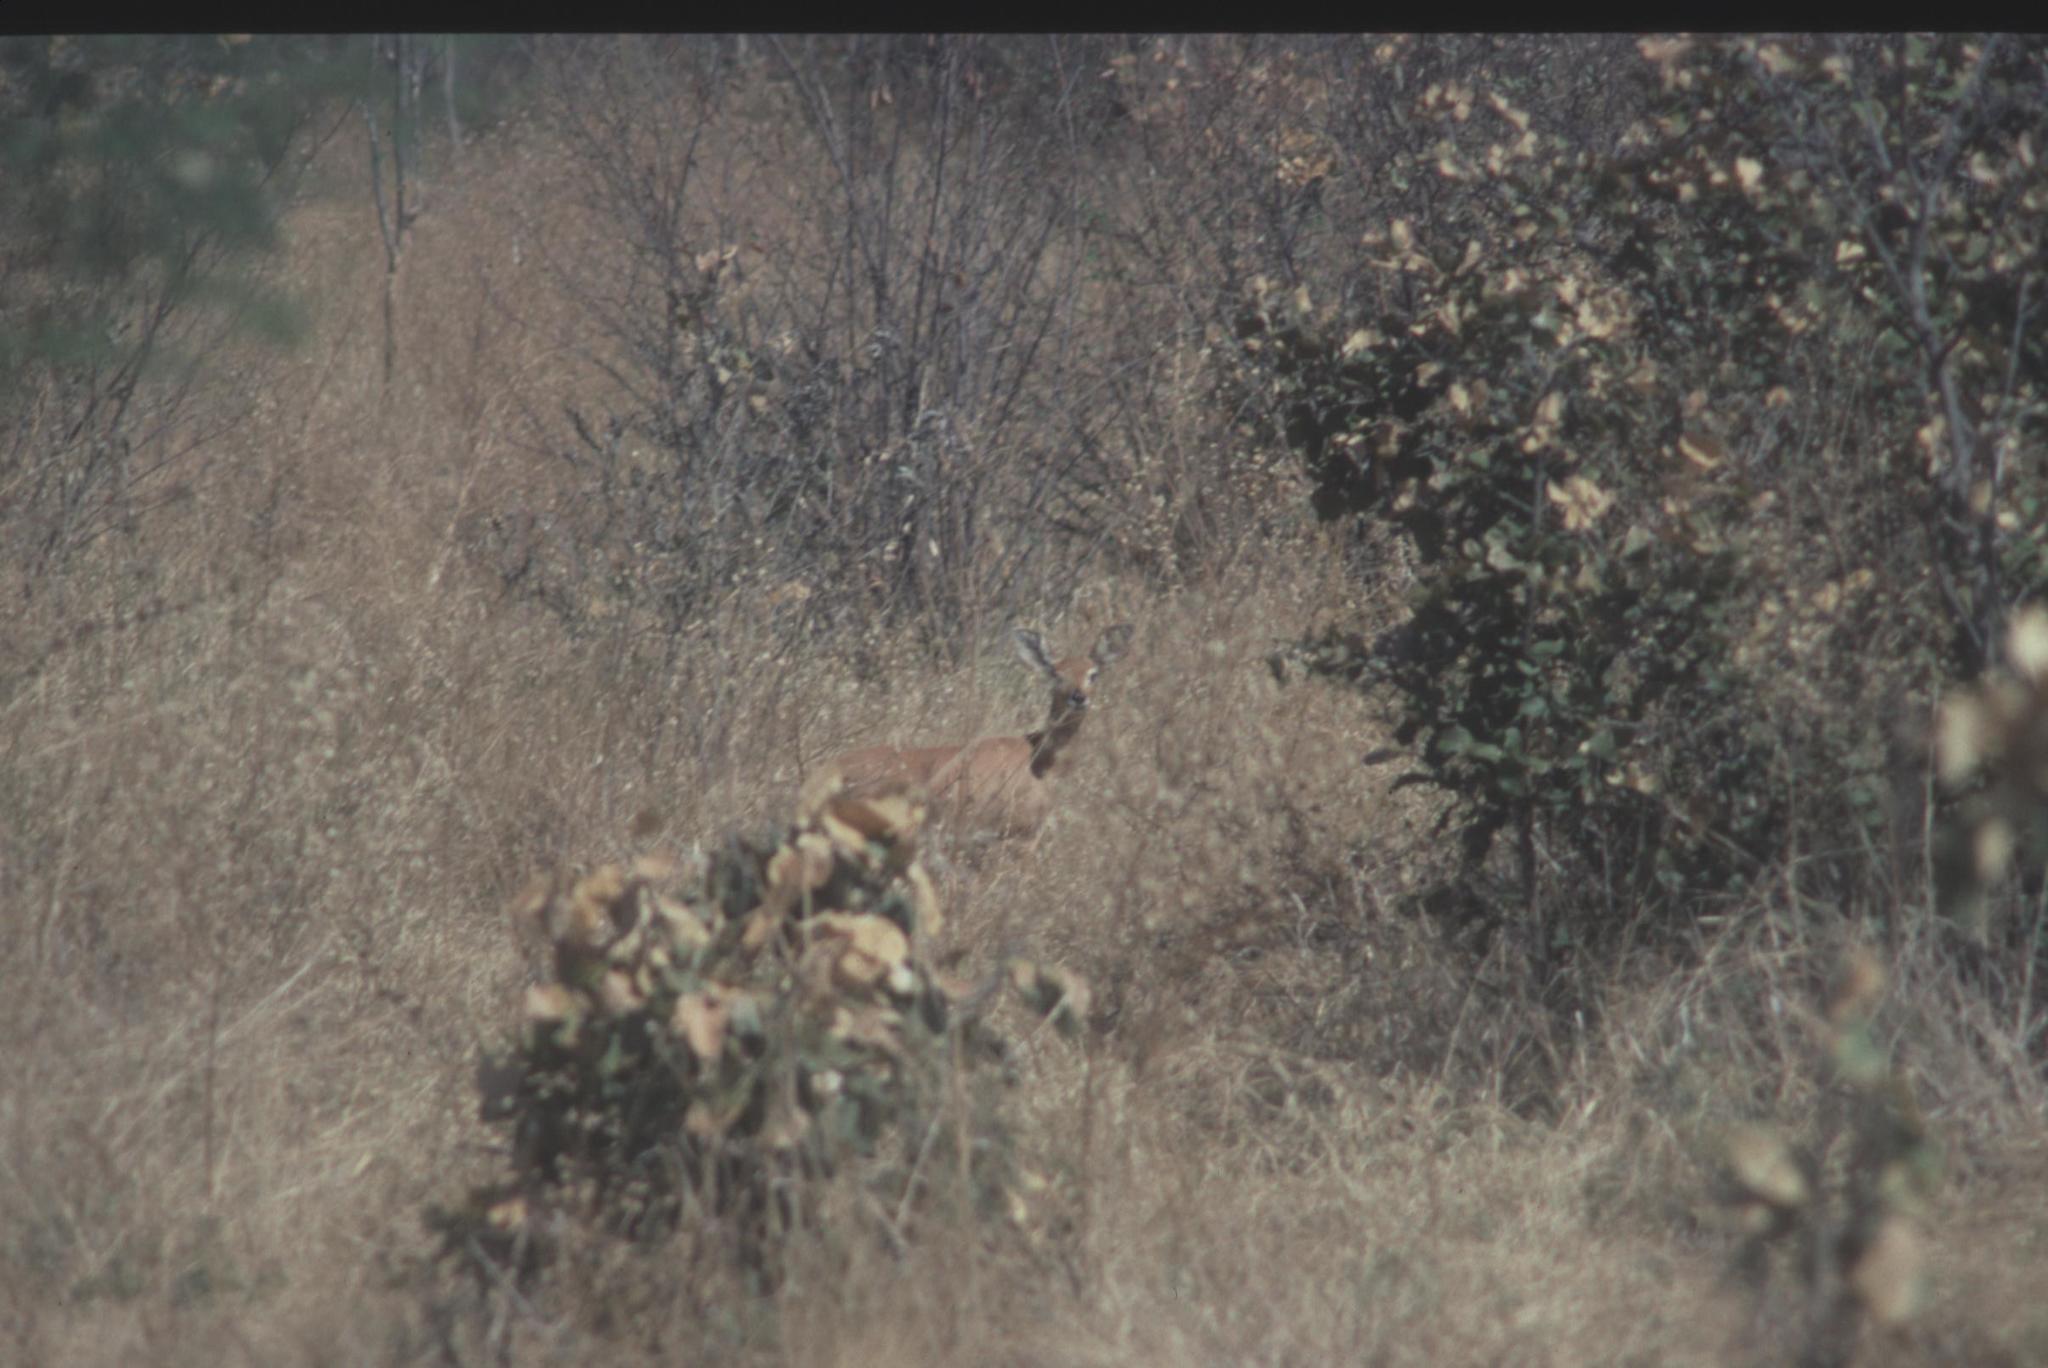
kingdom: Animalia
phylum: Chordata
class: Mammalia
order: Artiodactyla
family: Bovidae
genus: Raphicerus
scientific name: Raphicerus campestris
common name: Steenbok
